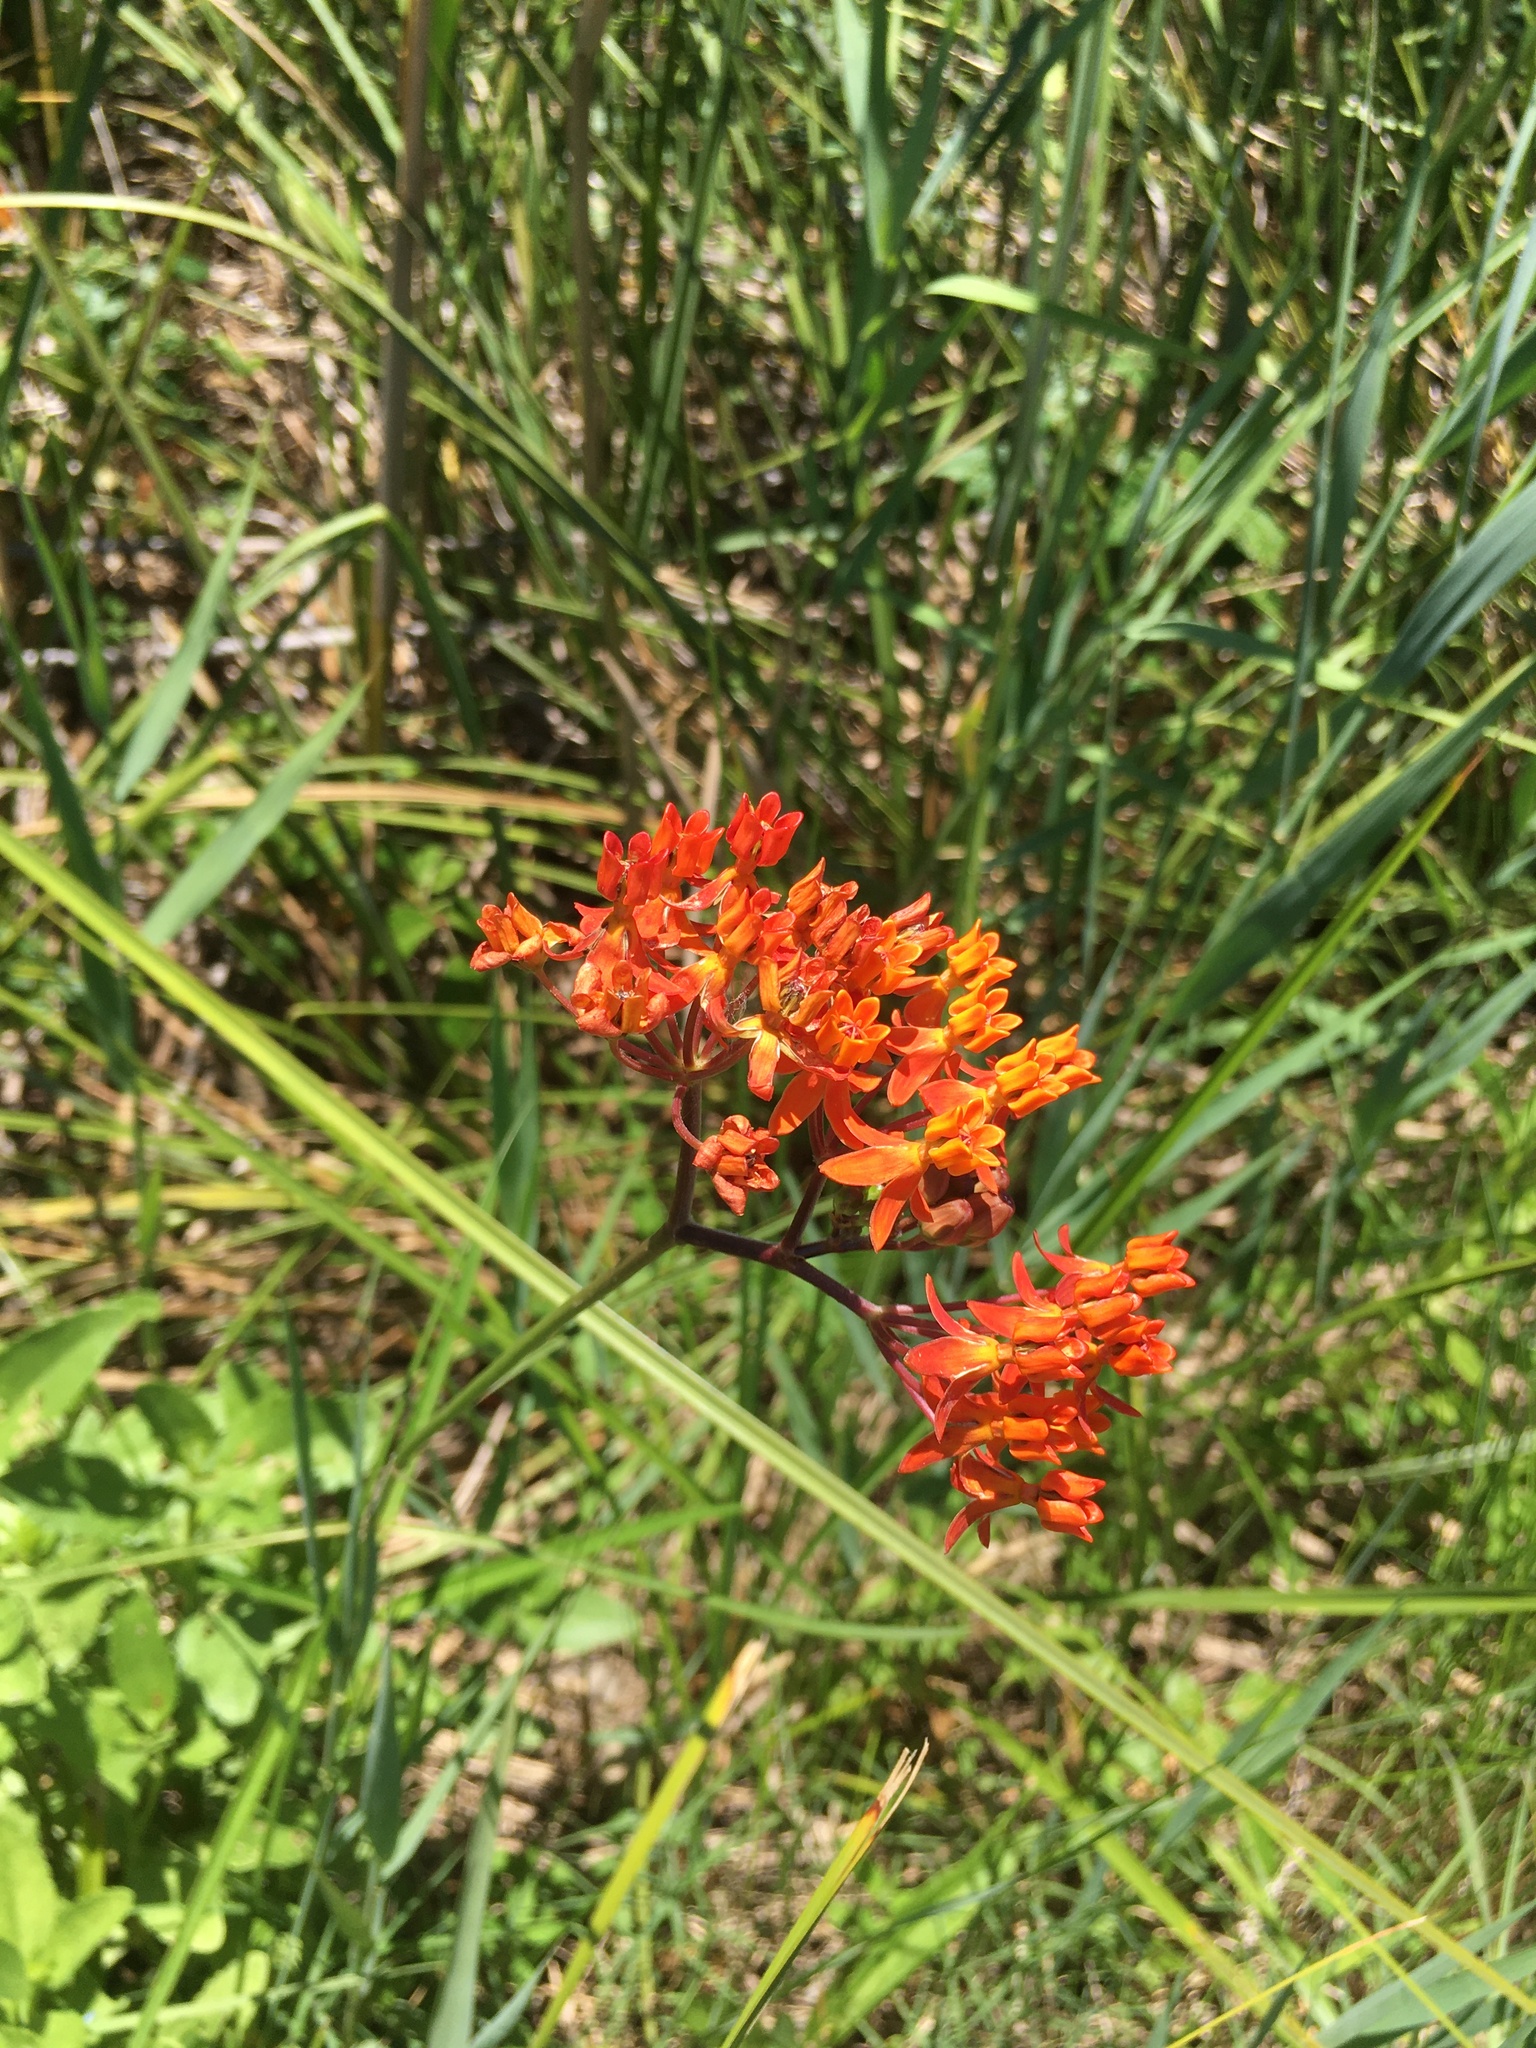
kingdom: Plantae
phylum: Tracheophyta
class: Magnoliopsida
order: Gentianales
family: Apocynaceae
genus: Asclepias
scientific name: Asclepias lanceolata
